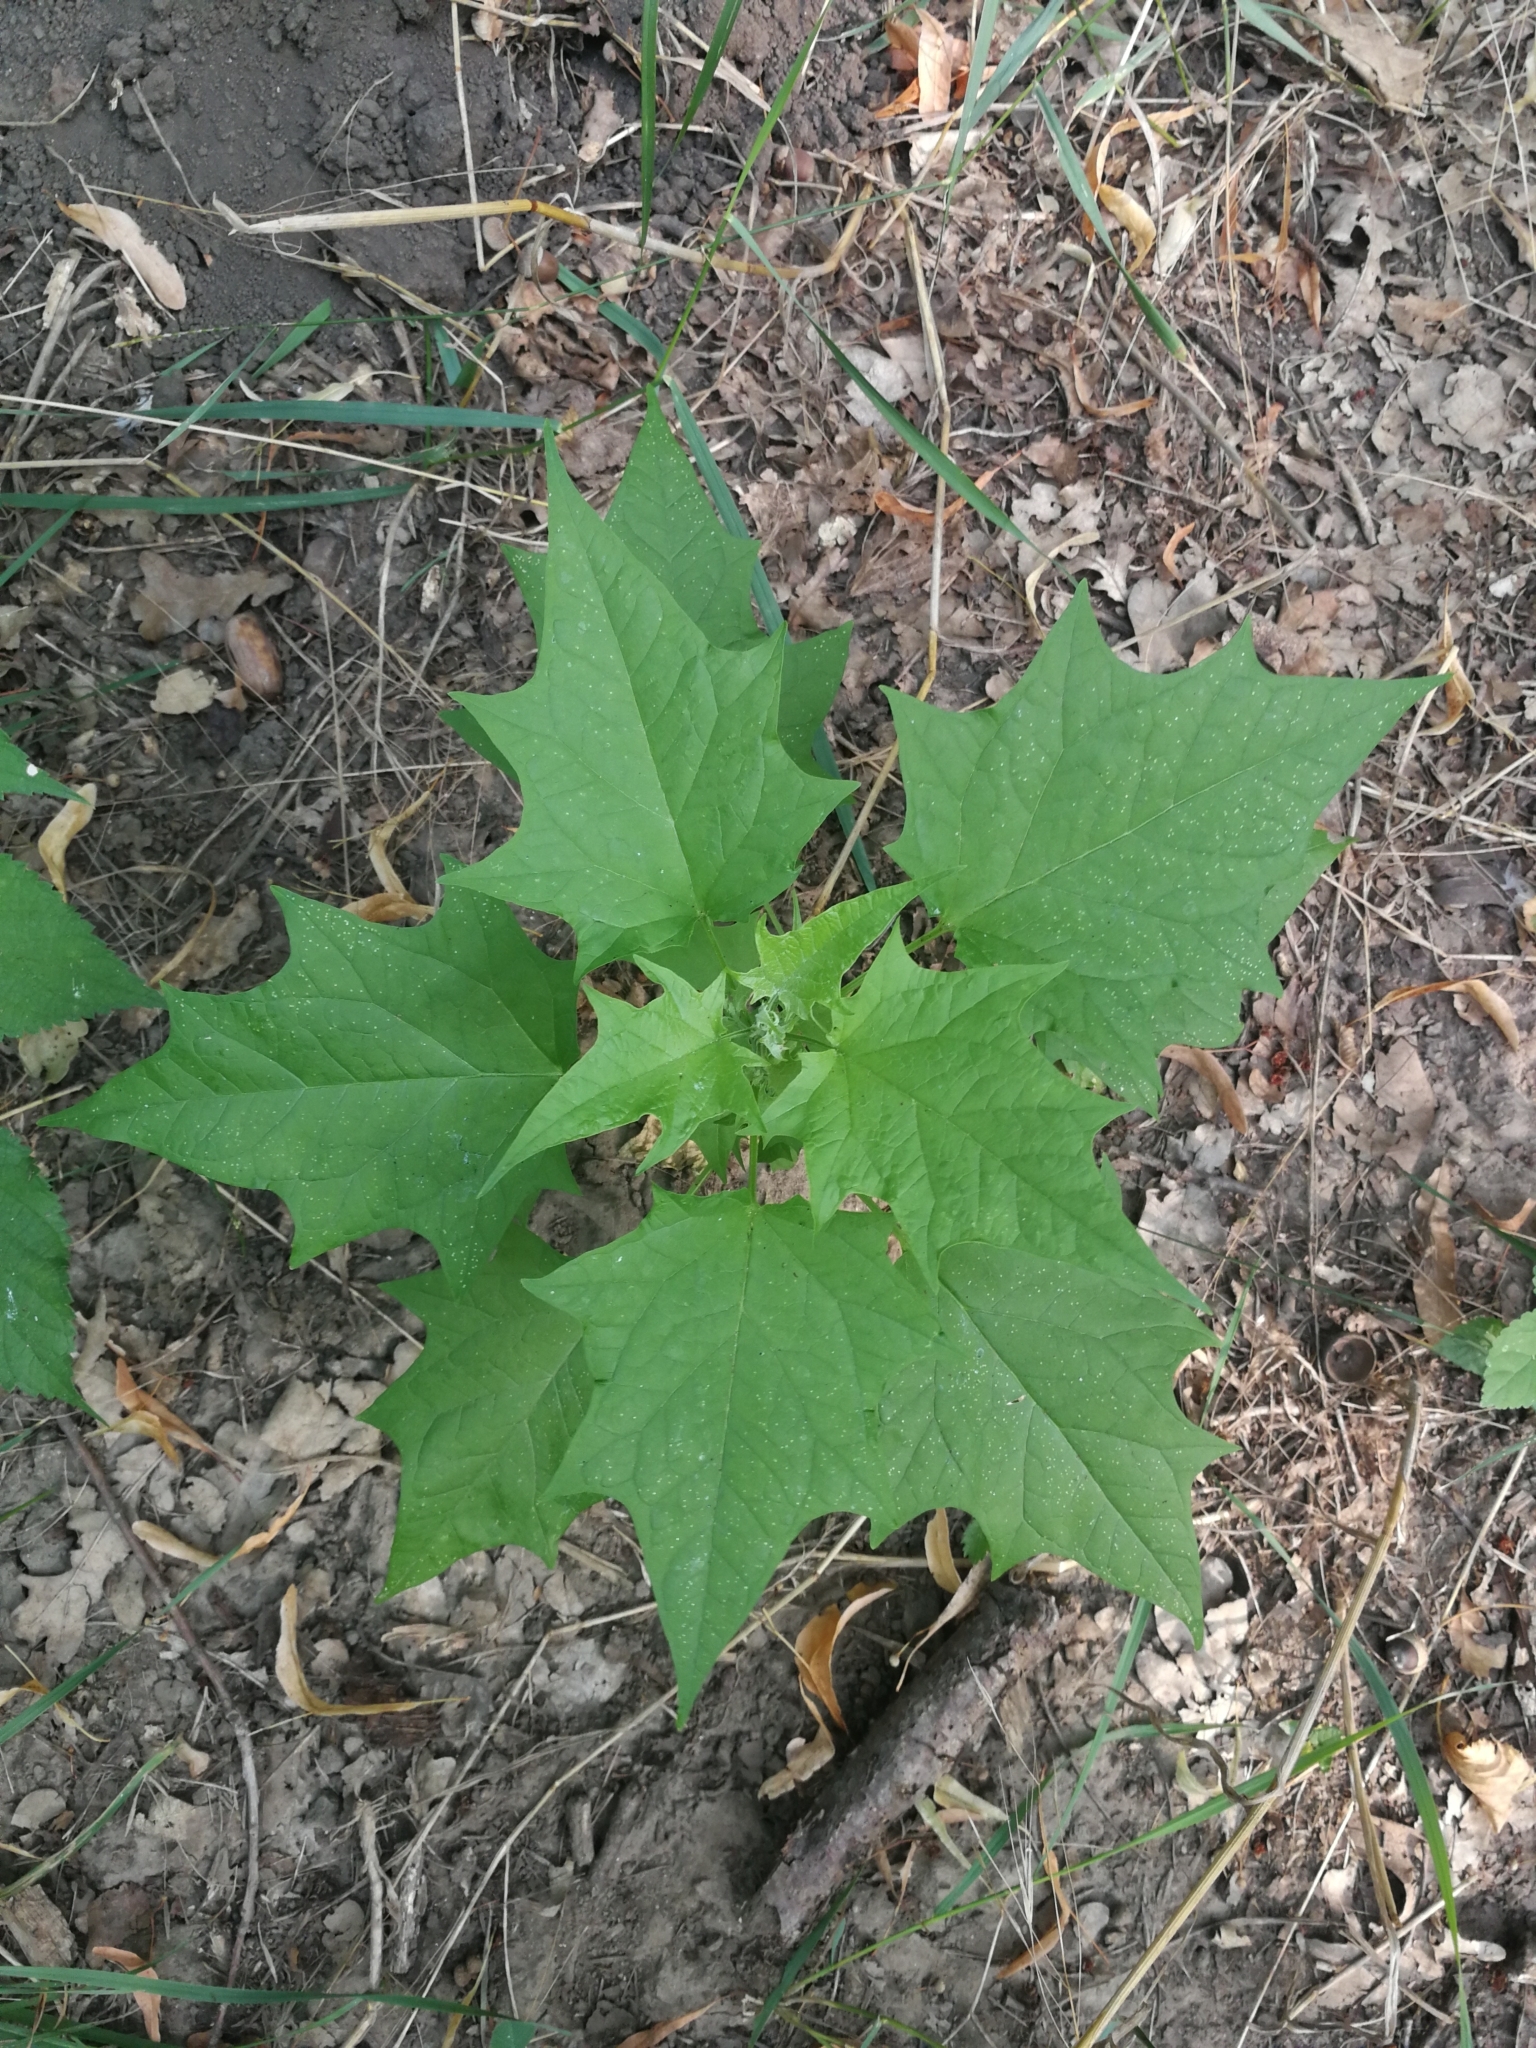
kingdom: Plantae
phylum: Tracheophyta
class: Magnoliopsida
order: Caryophyllales
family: Amaranthaceae
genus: Chenopodiastrum
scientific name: Chenopodiastrum hybridum
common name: Mapleleaf goosefoot
